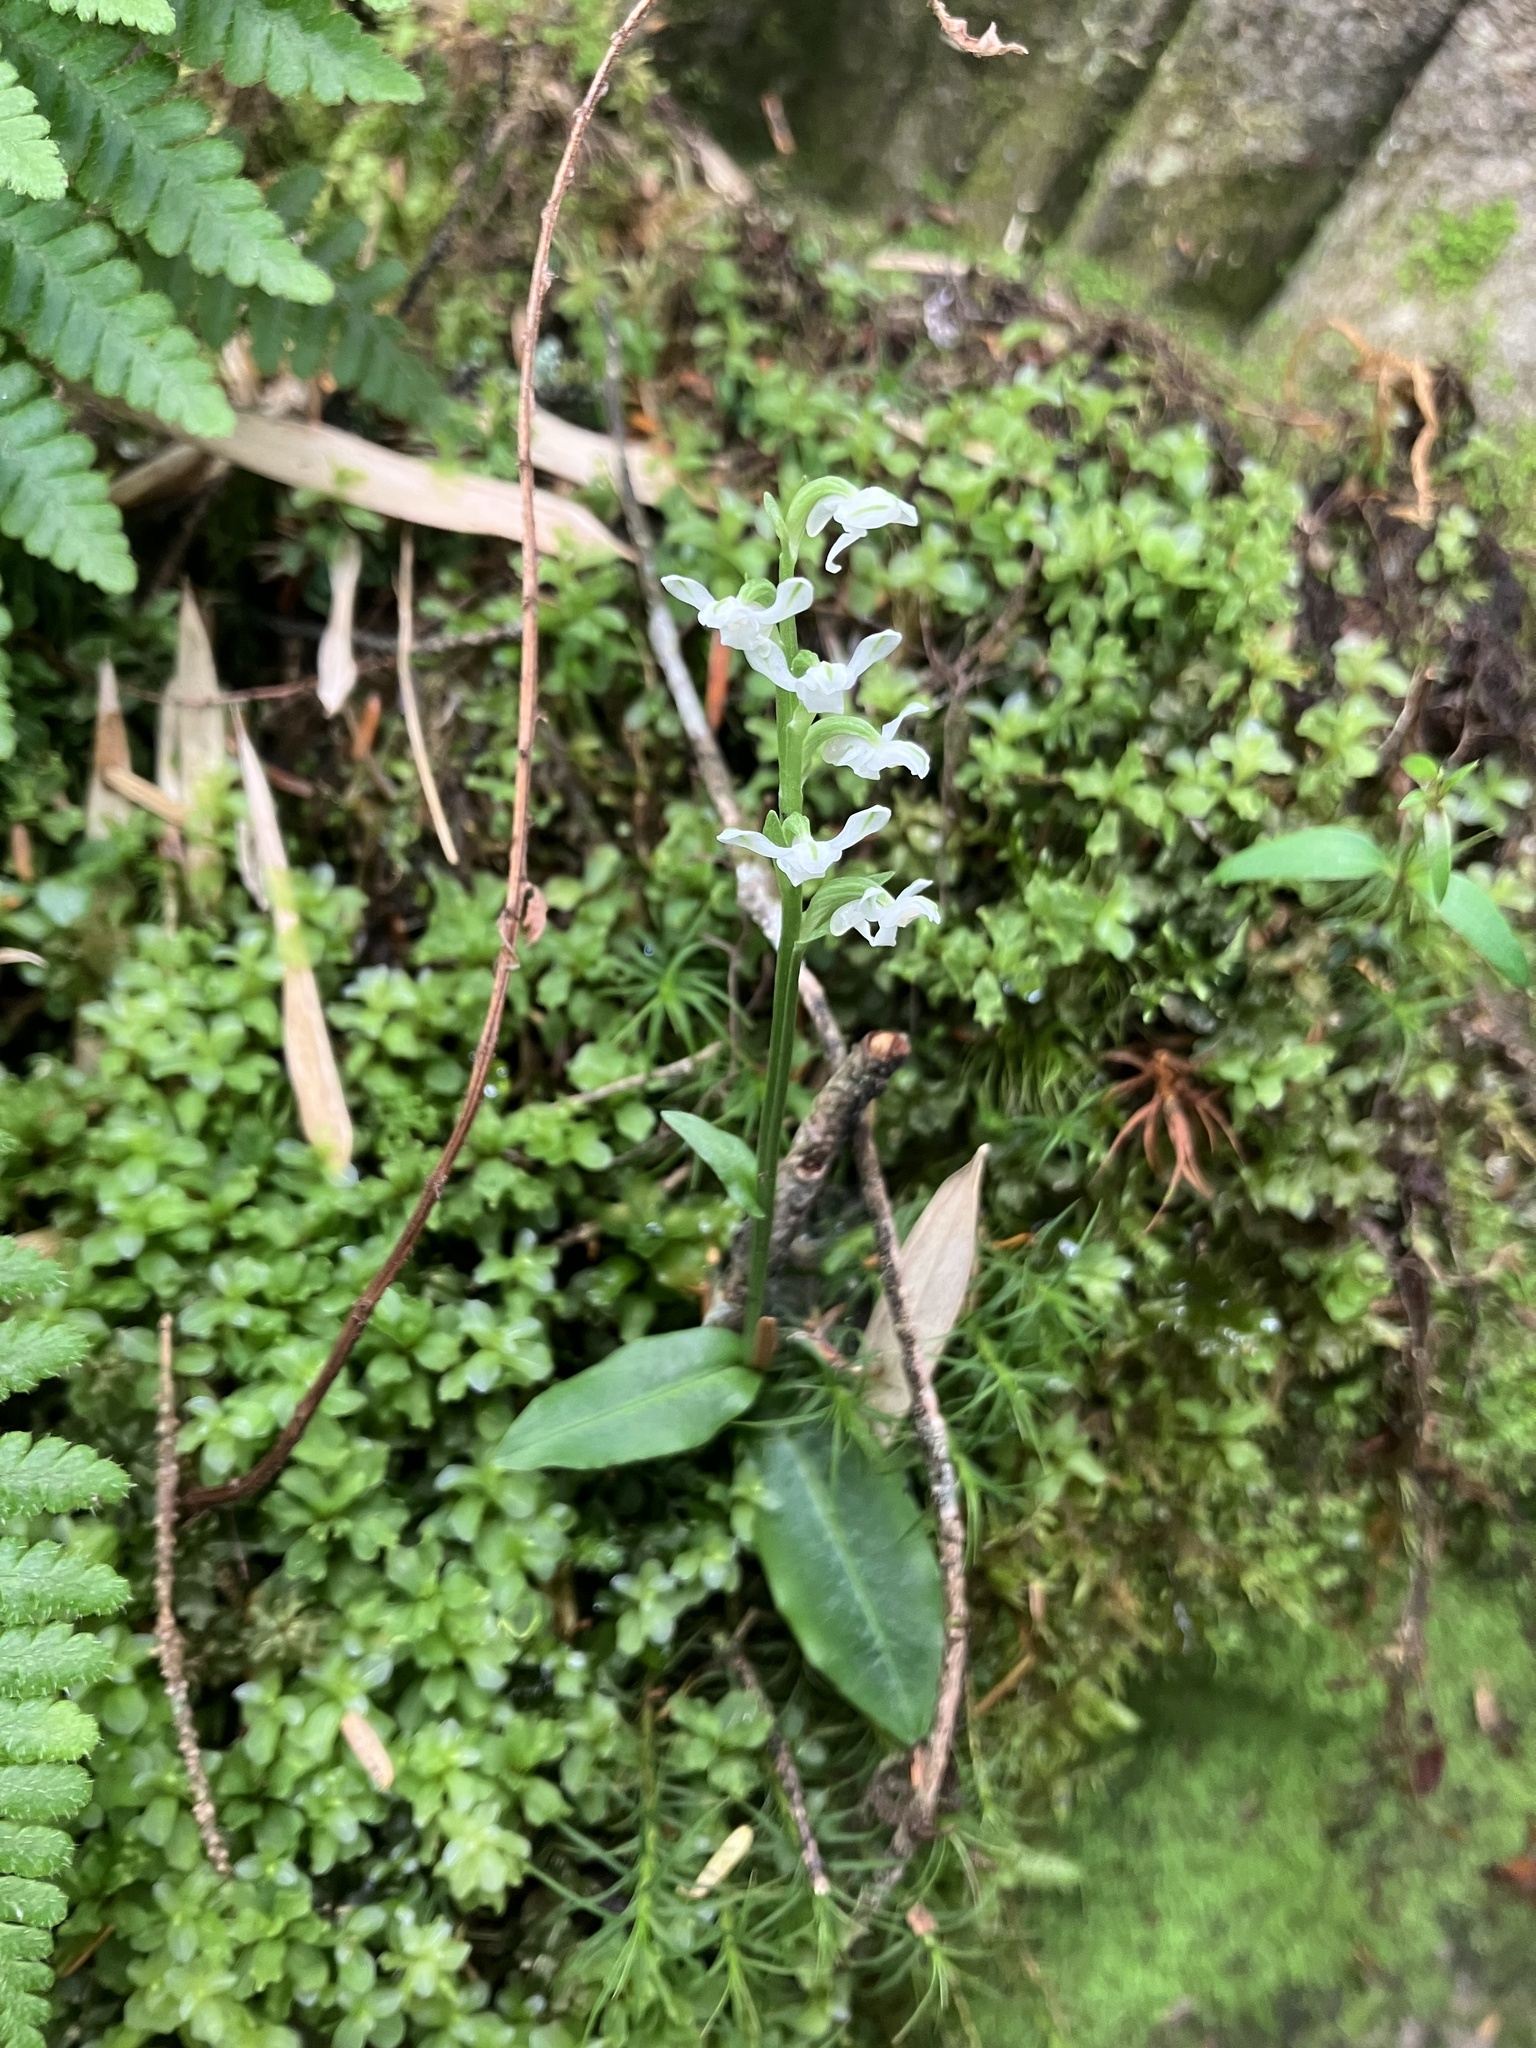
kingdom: Plantae
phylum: Tracheophyta
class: Liliopsida
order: Asparagales
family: Orchidaceae
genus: Platanthera
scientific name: Platanthera brevicalcarata
